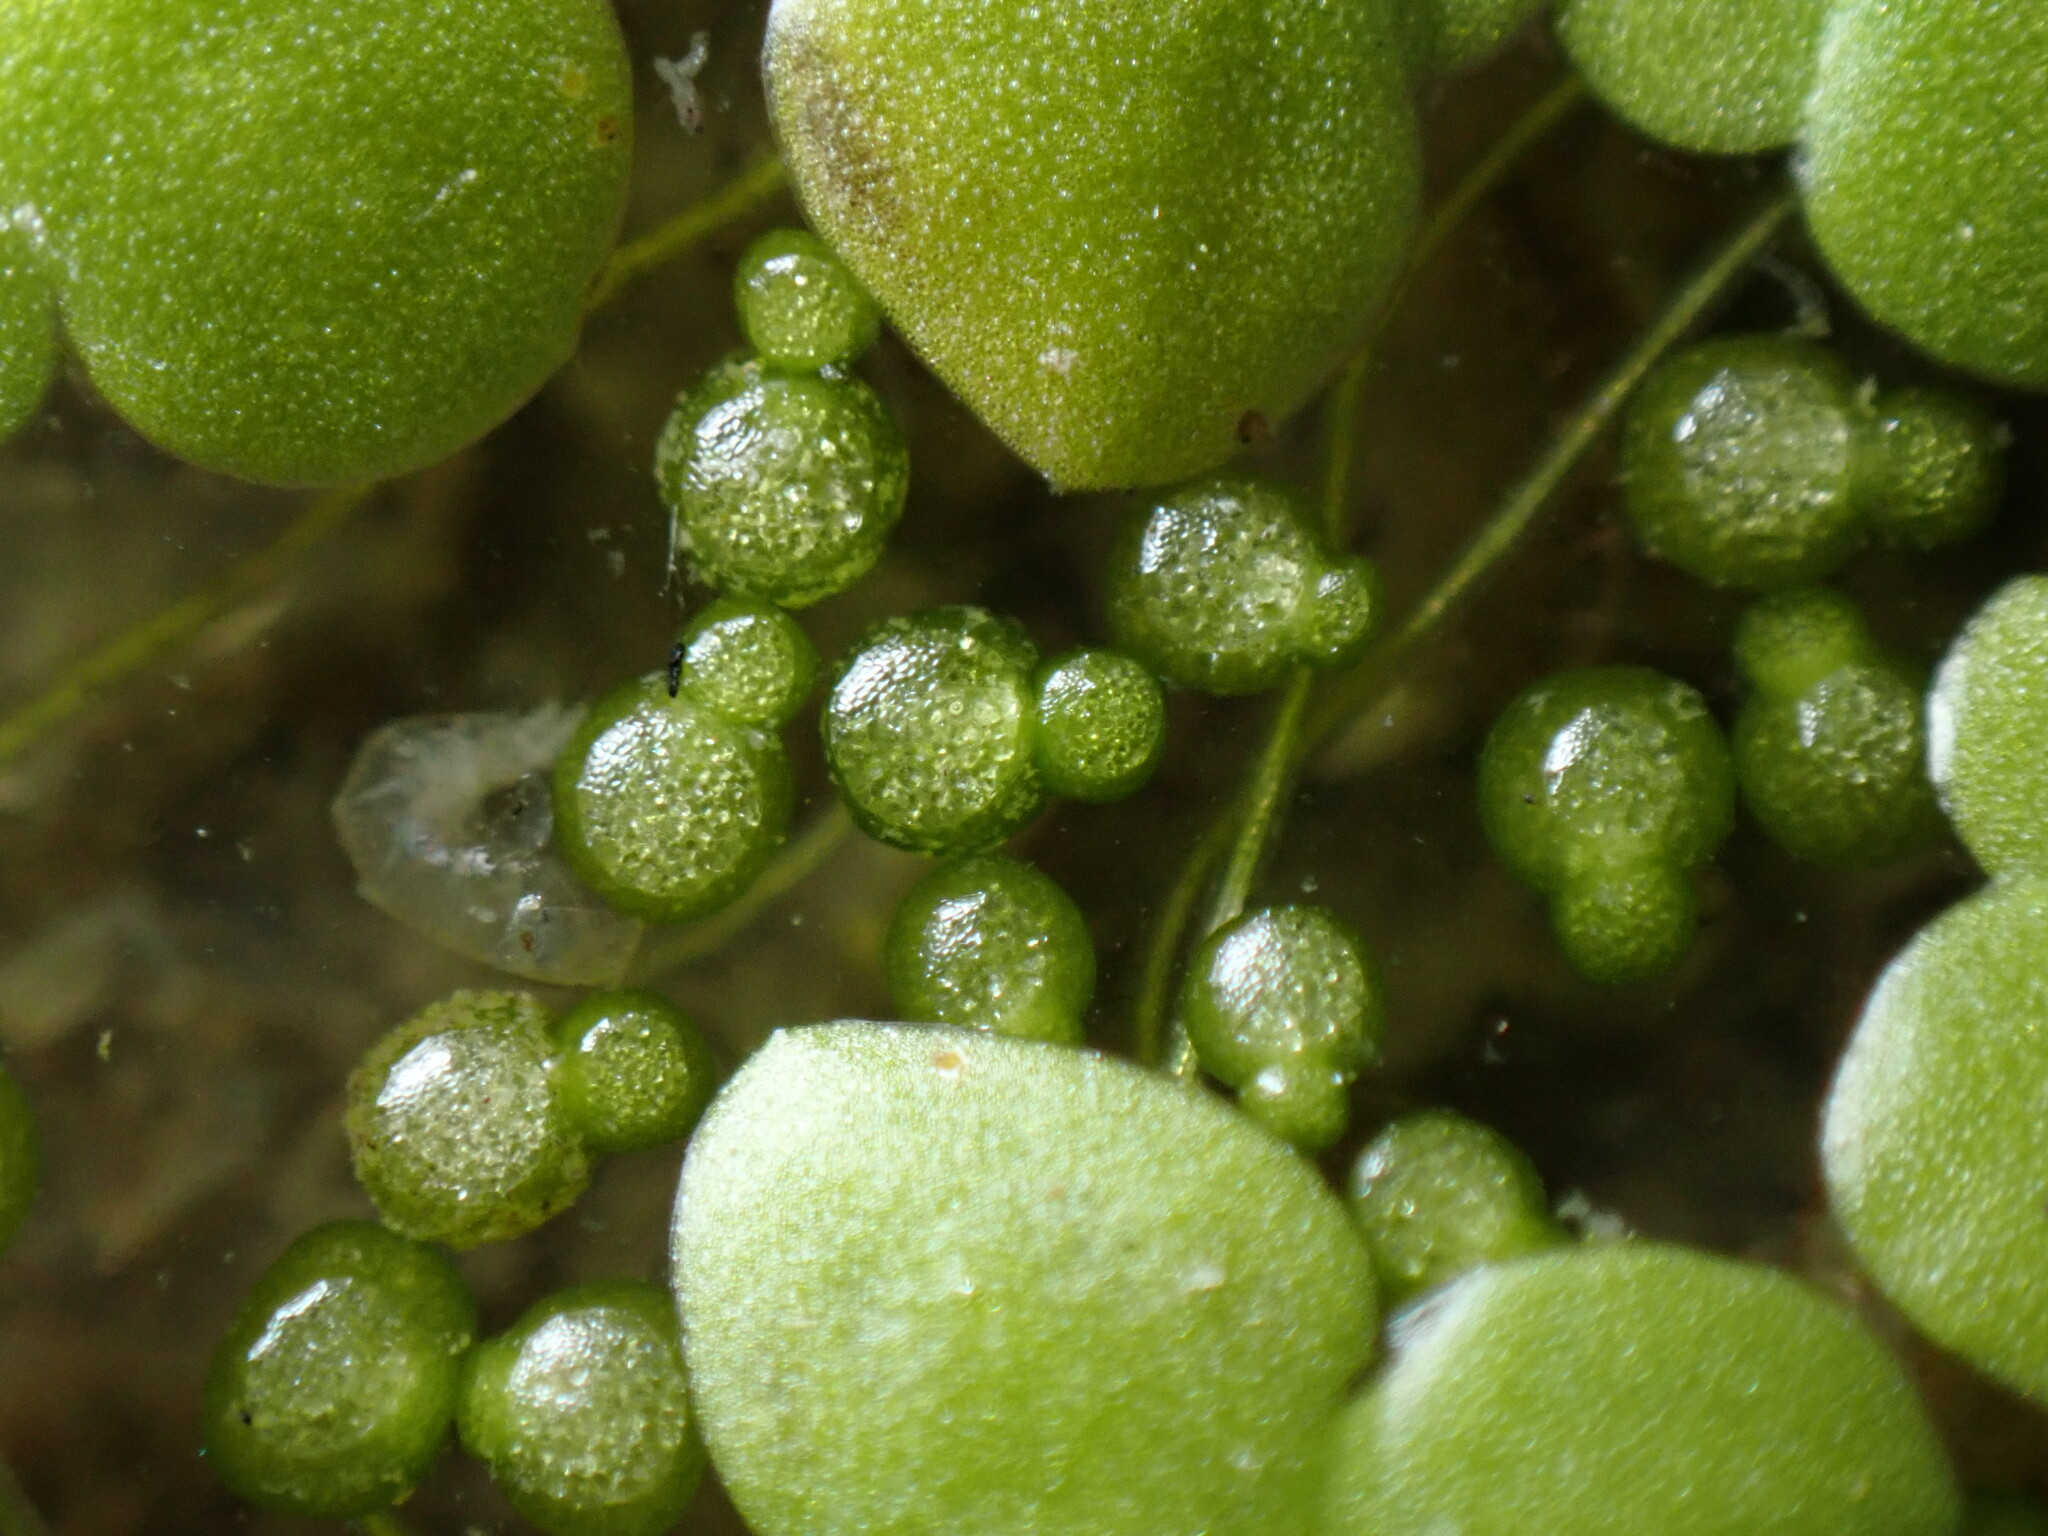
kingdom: Plantae
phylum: Tracheophyta
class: Liliopsida
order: Alismatales
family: Araceae
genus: Wolffia
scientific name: Wolffia columbiana
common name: Columbia watermeal
